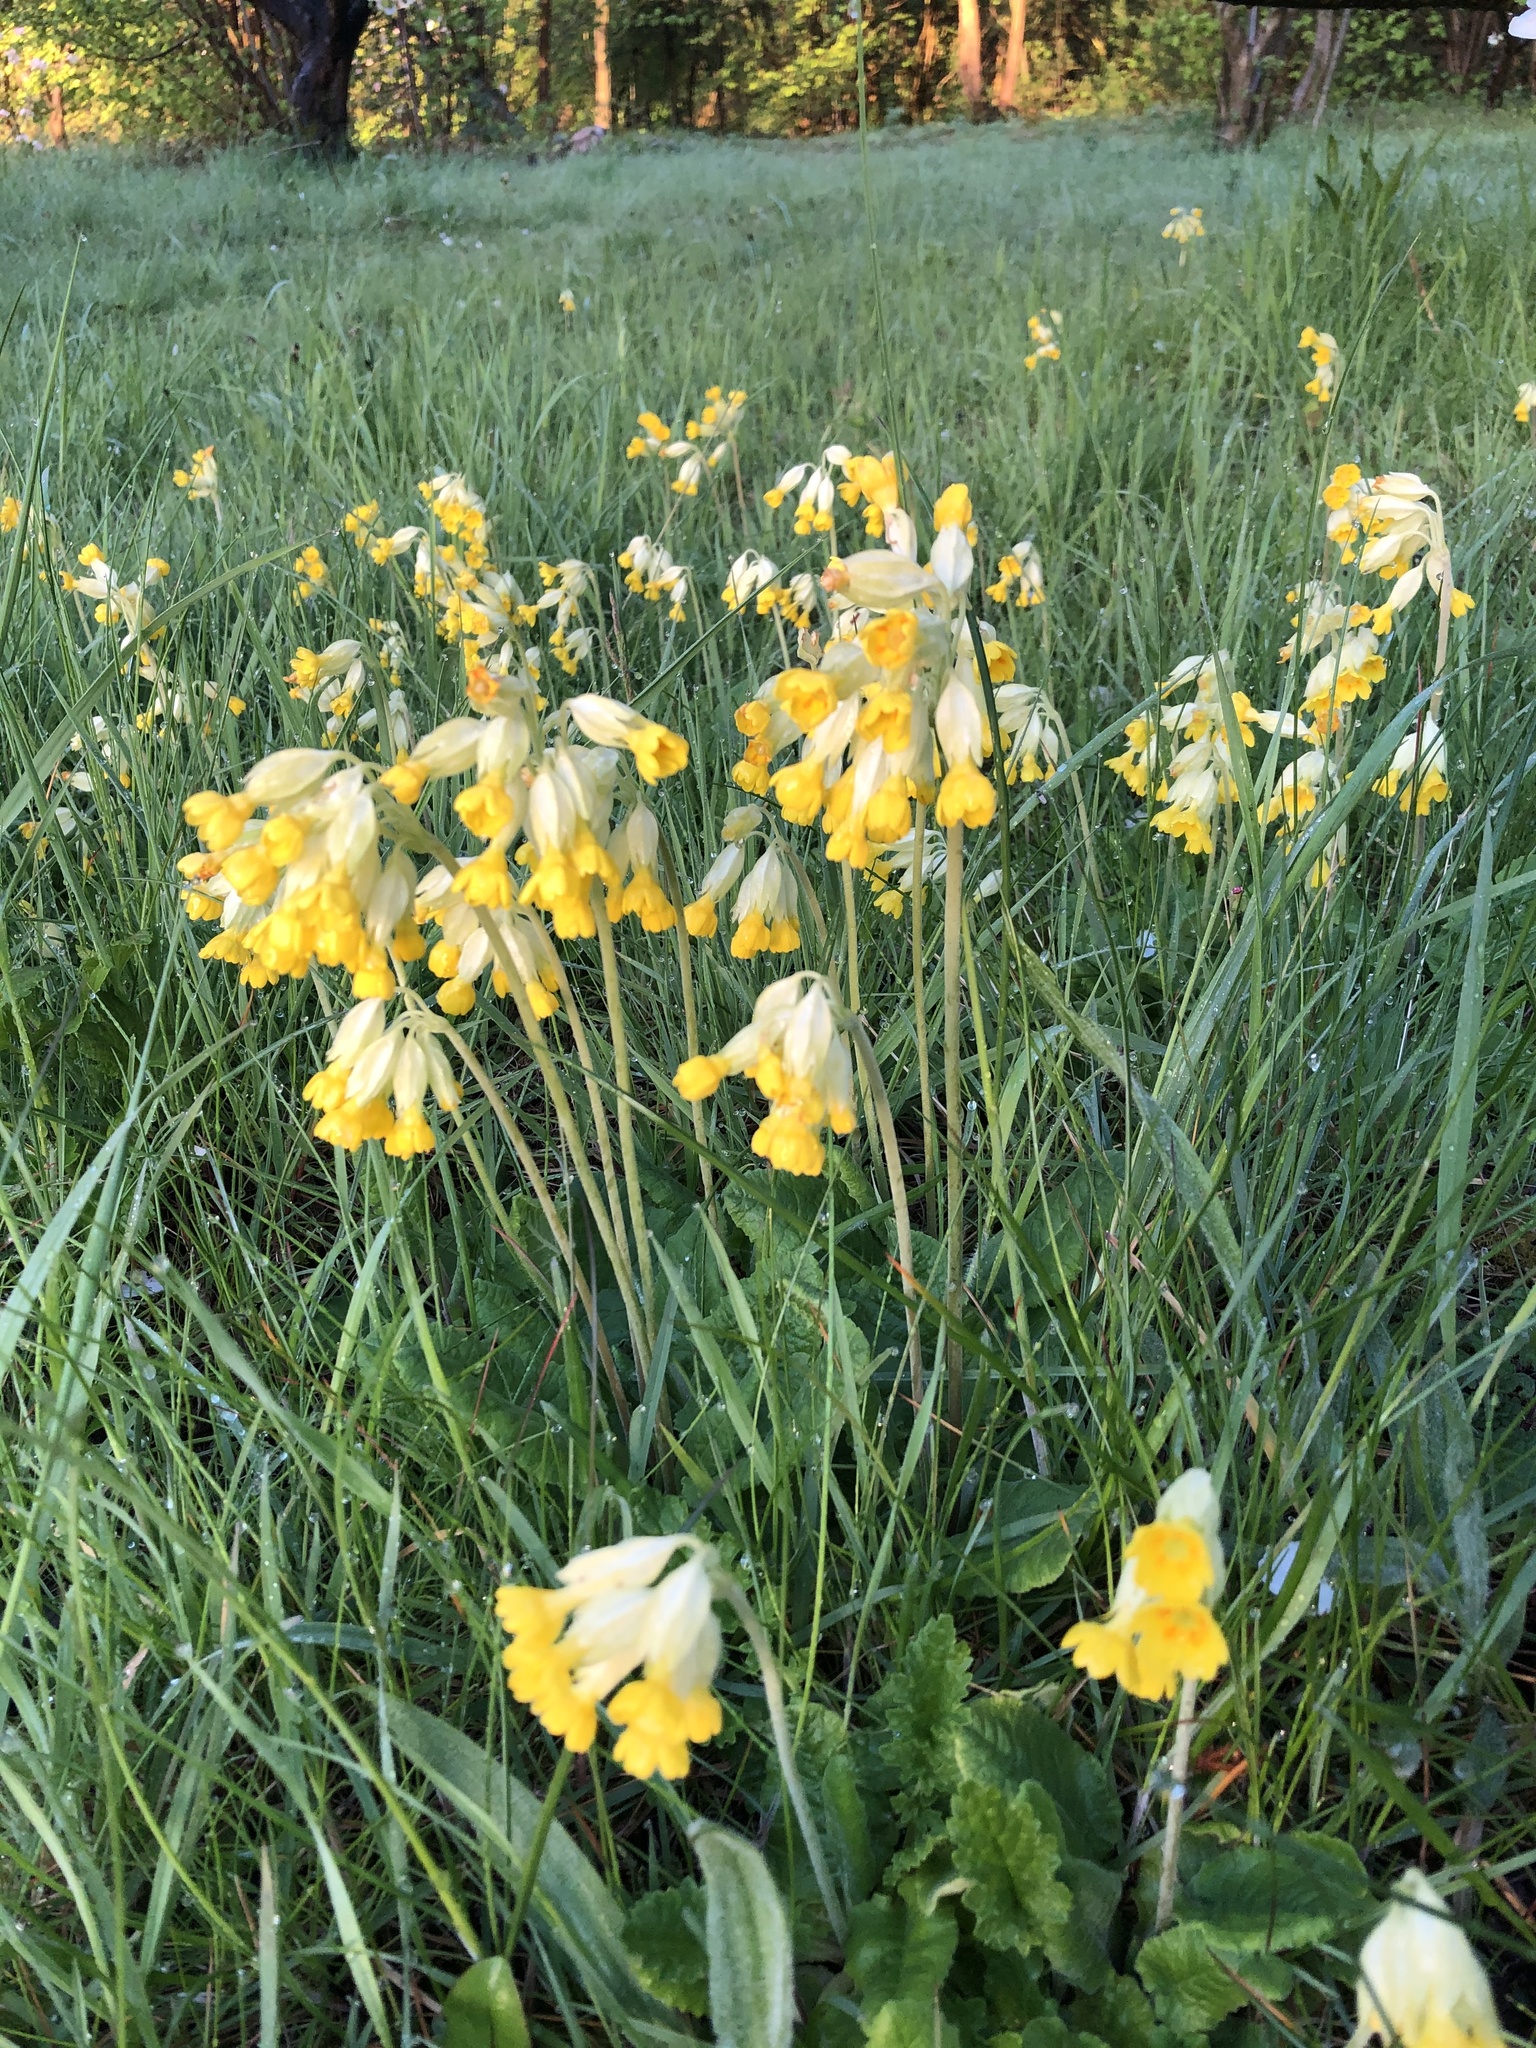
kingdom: Plantae
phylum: Tracheophyta
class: Magnoliopsida
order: Ericales
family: Primulaceae
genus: Primula
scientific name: Primula veris
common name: Cowslip
